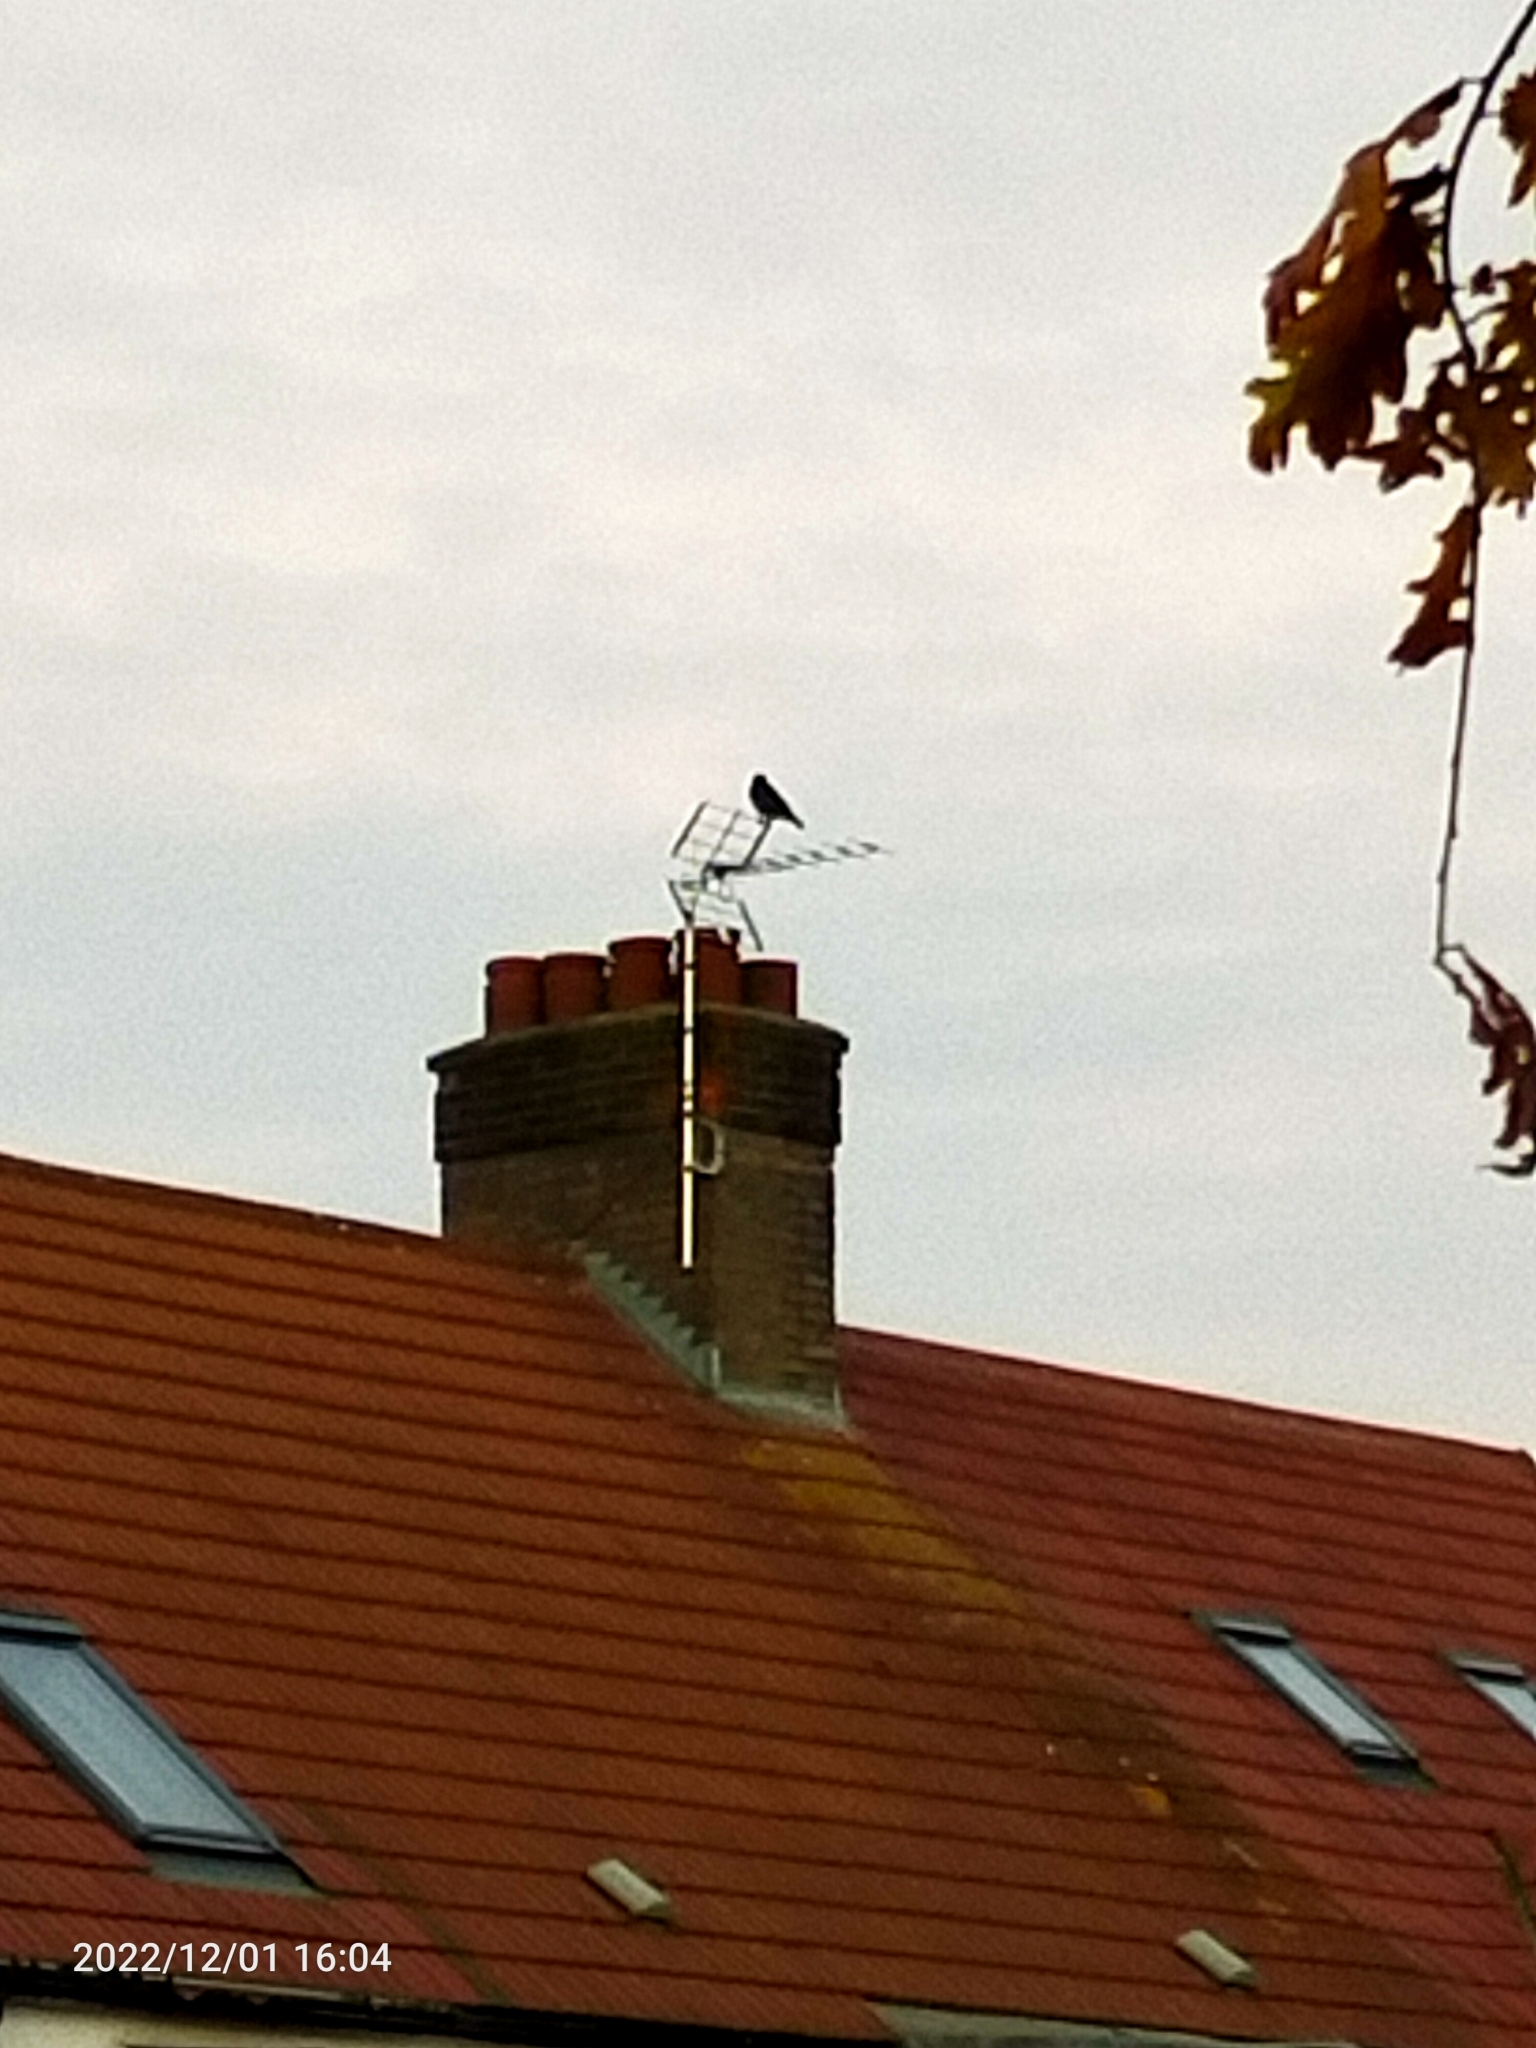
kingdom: Animalia
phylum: Chordata
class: Aves
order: Passeriformes
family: Corvidae
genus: Corvus
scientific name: Corvus corone
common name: Carrion crow
